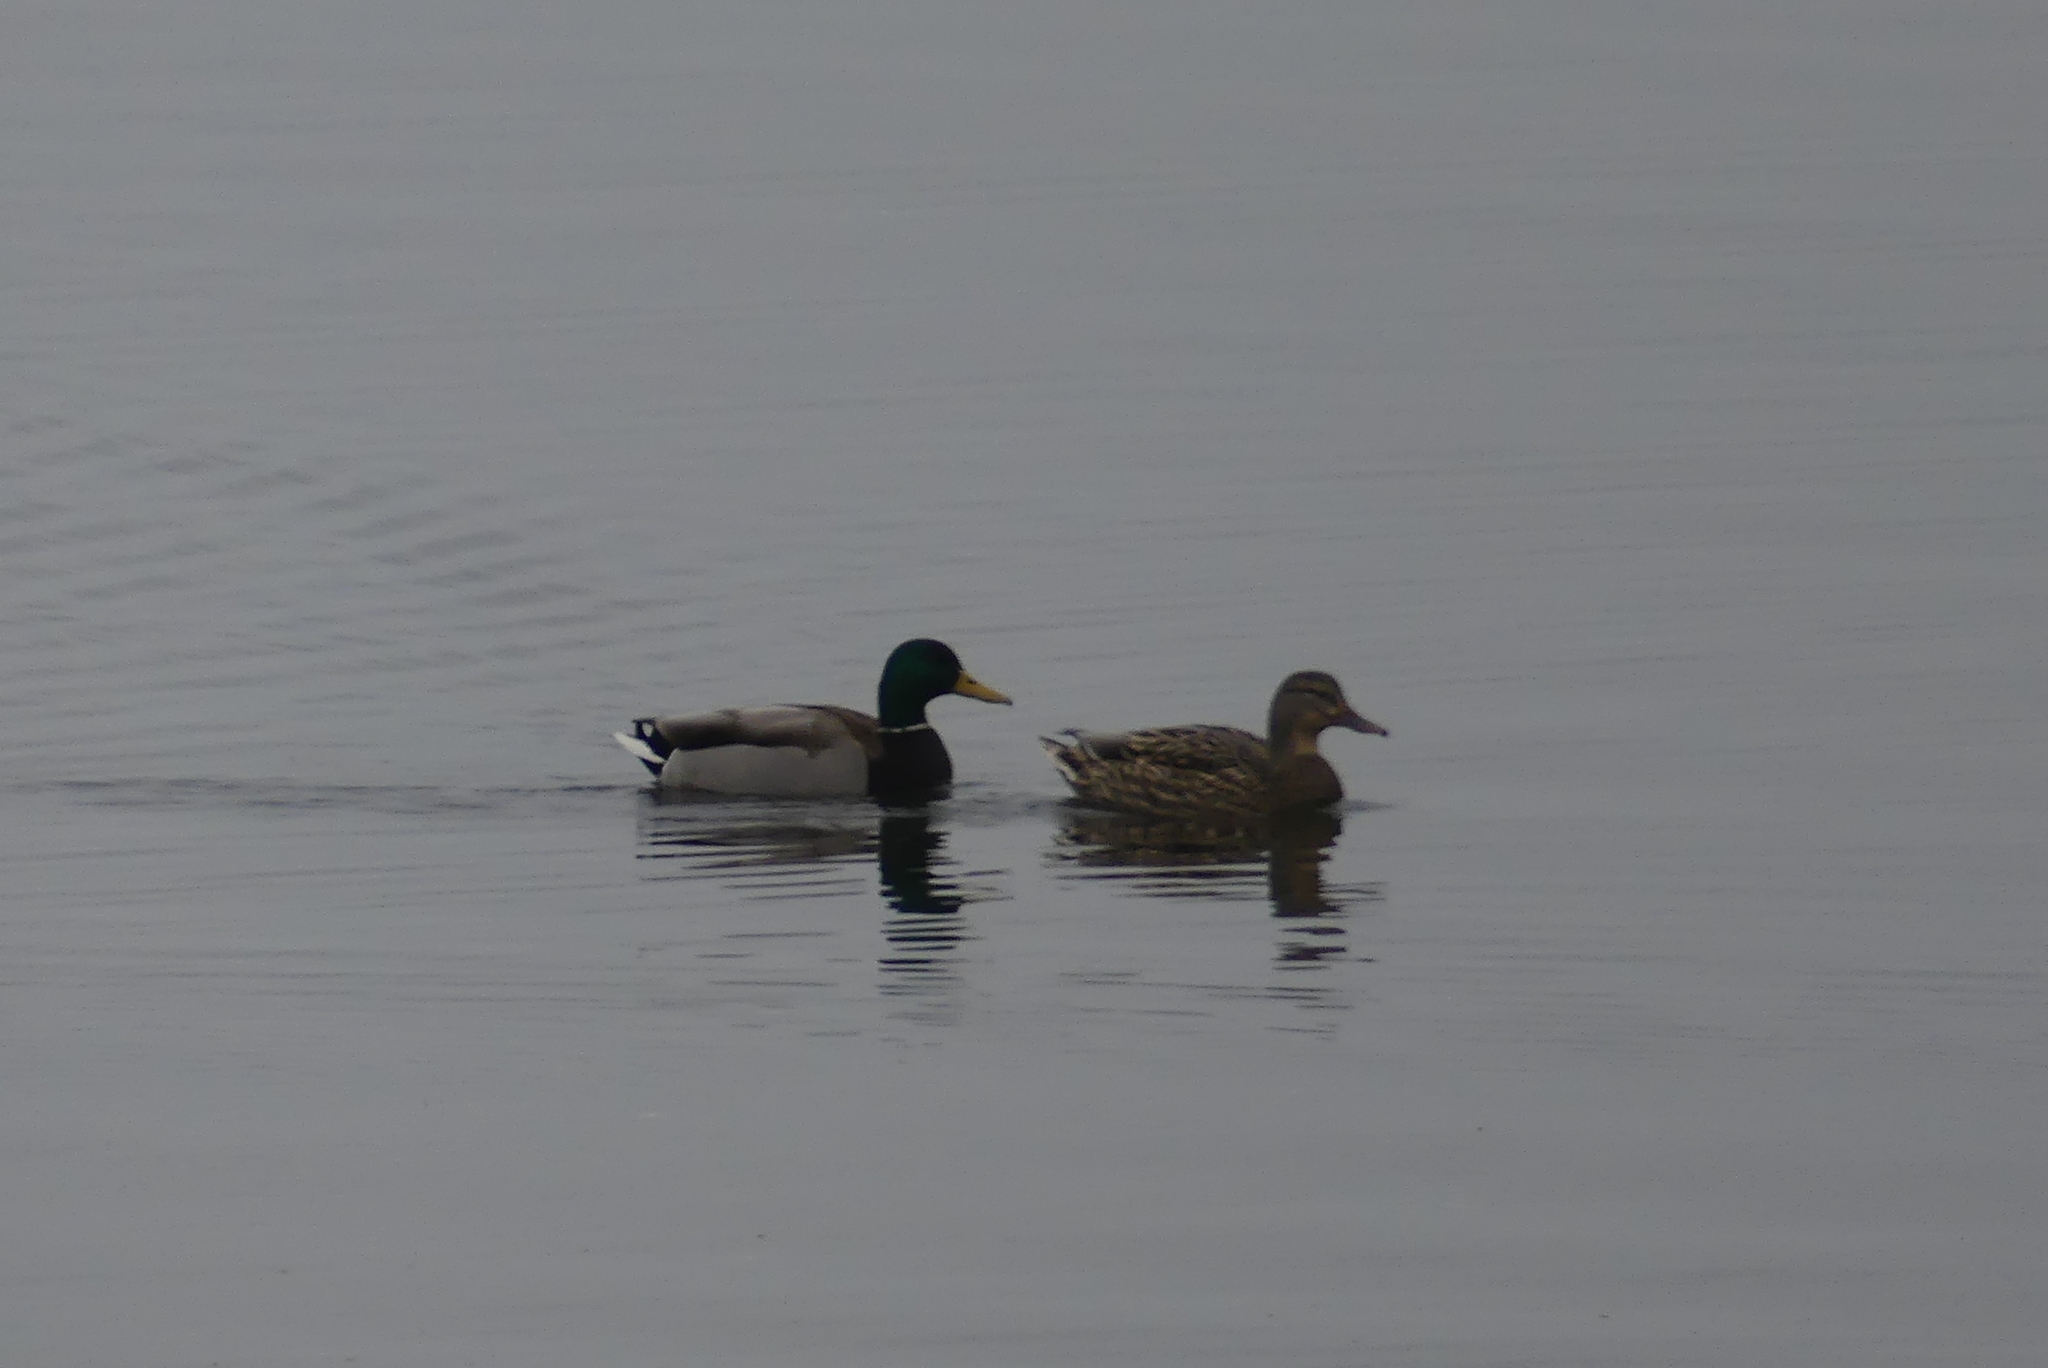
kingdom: Animalia
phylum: Chordata
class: Aves
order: Anseriformes
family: Anatidae
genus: Anas
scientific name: Anas platyrhynchos
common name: Mallard
